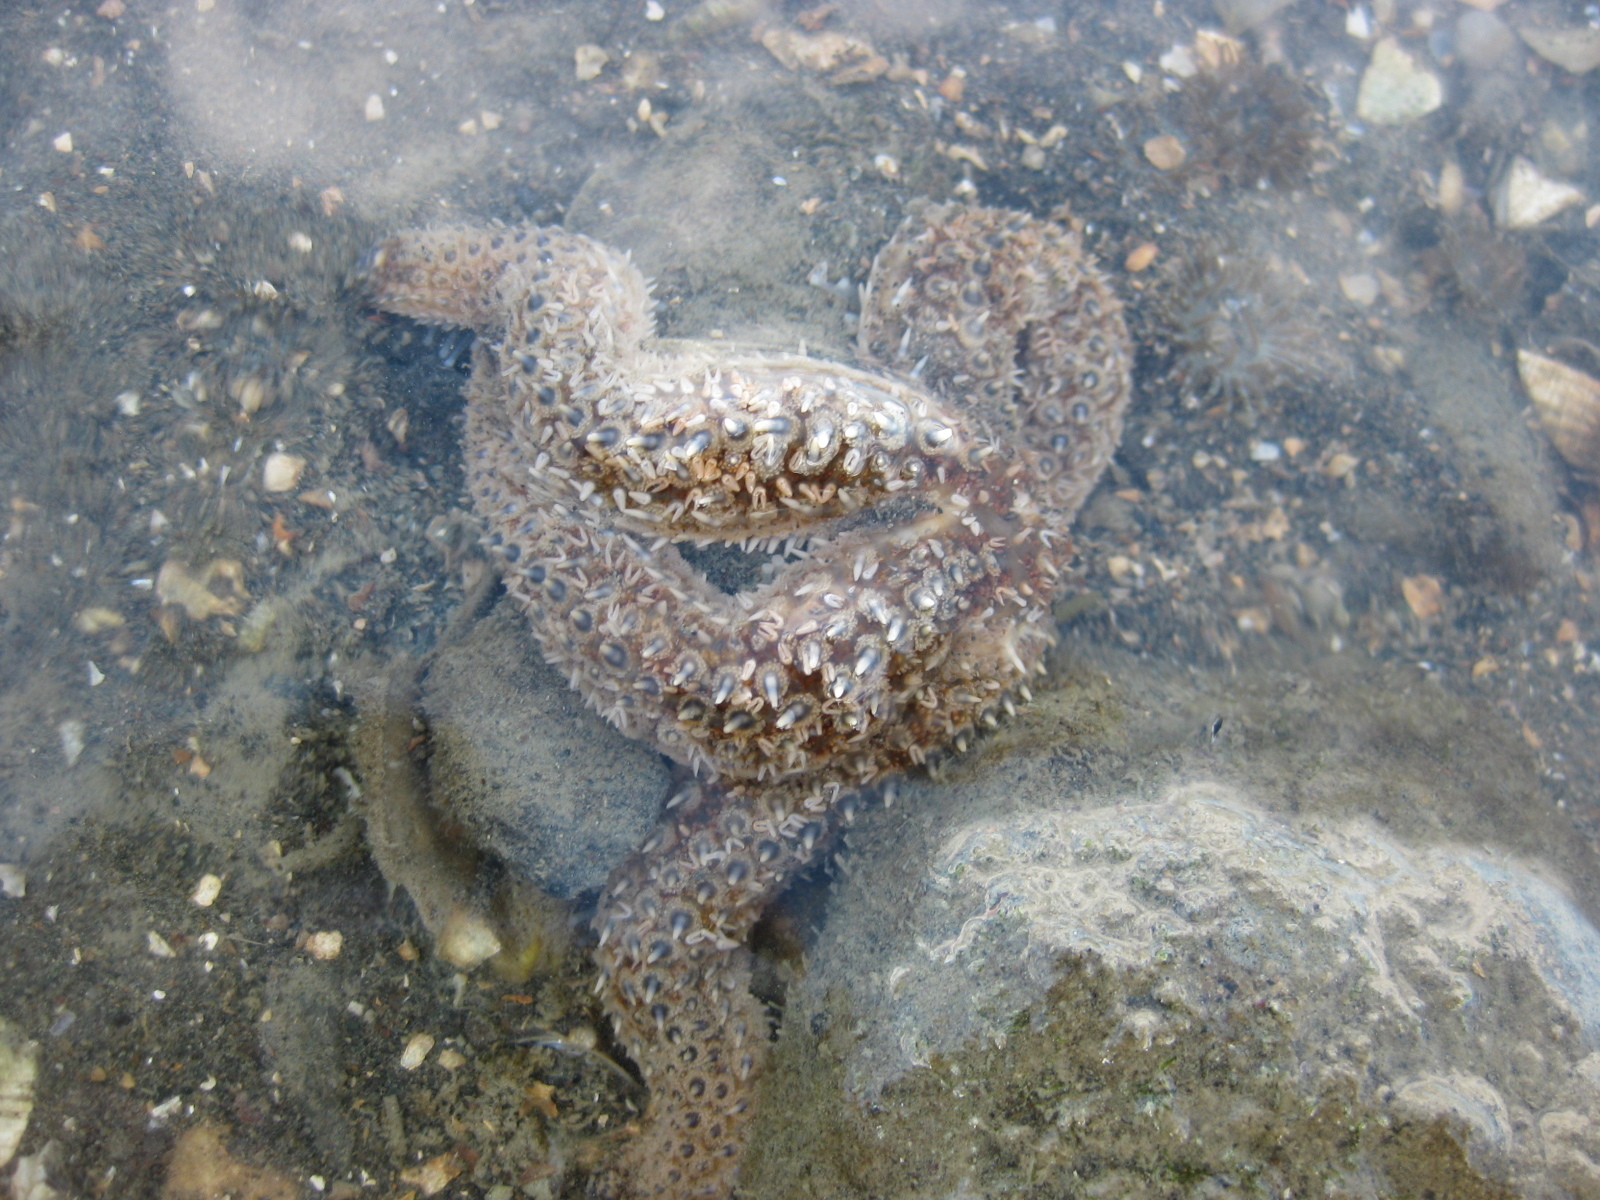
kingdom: Animalia
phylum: Echinodermata
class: Asteroidea
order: Forcipulatida
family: Asteriidae
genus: Coscinasterias
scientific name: Coscinasterias muricata
